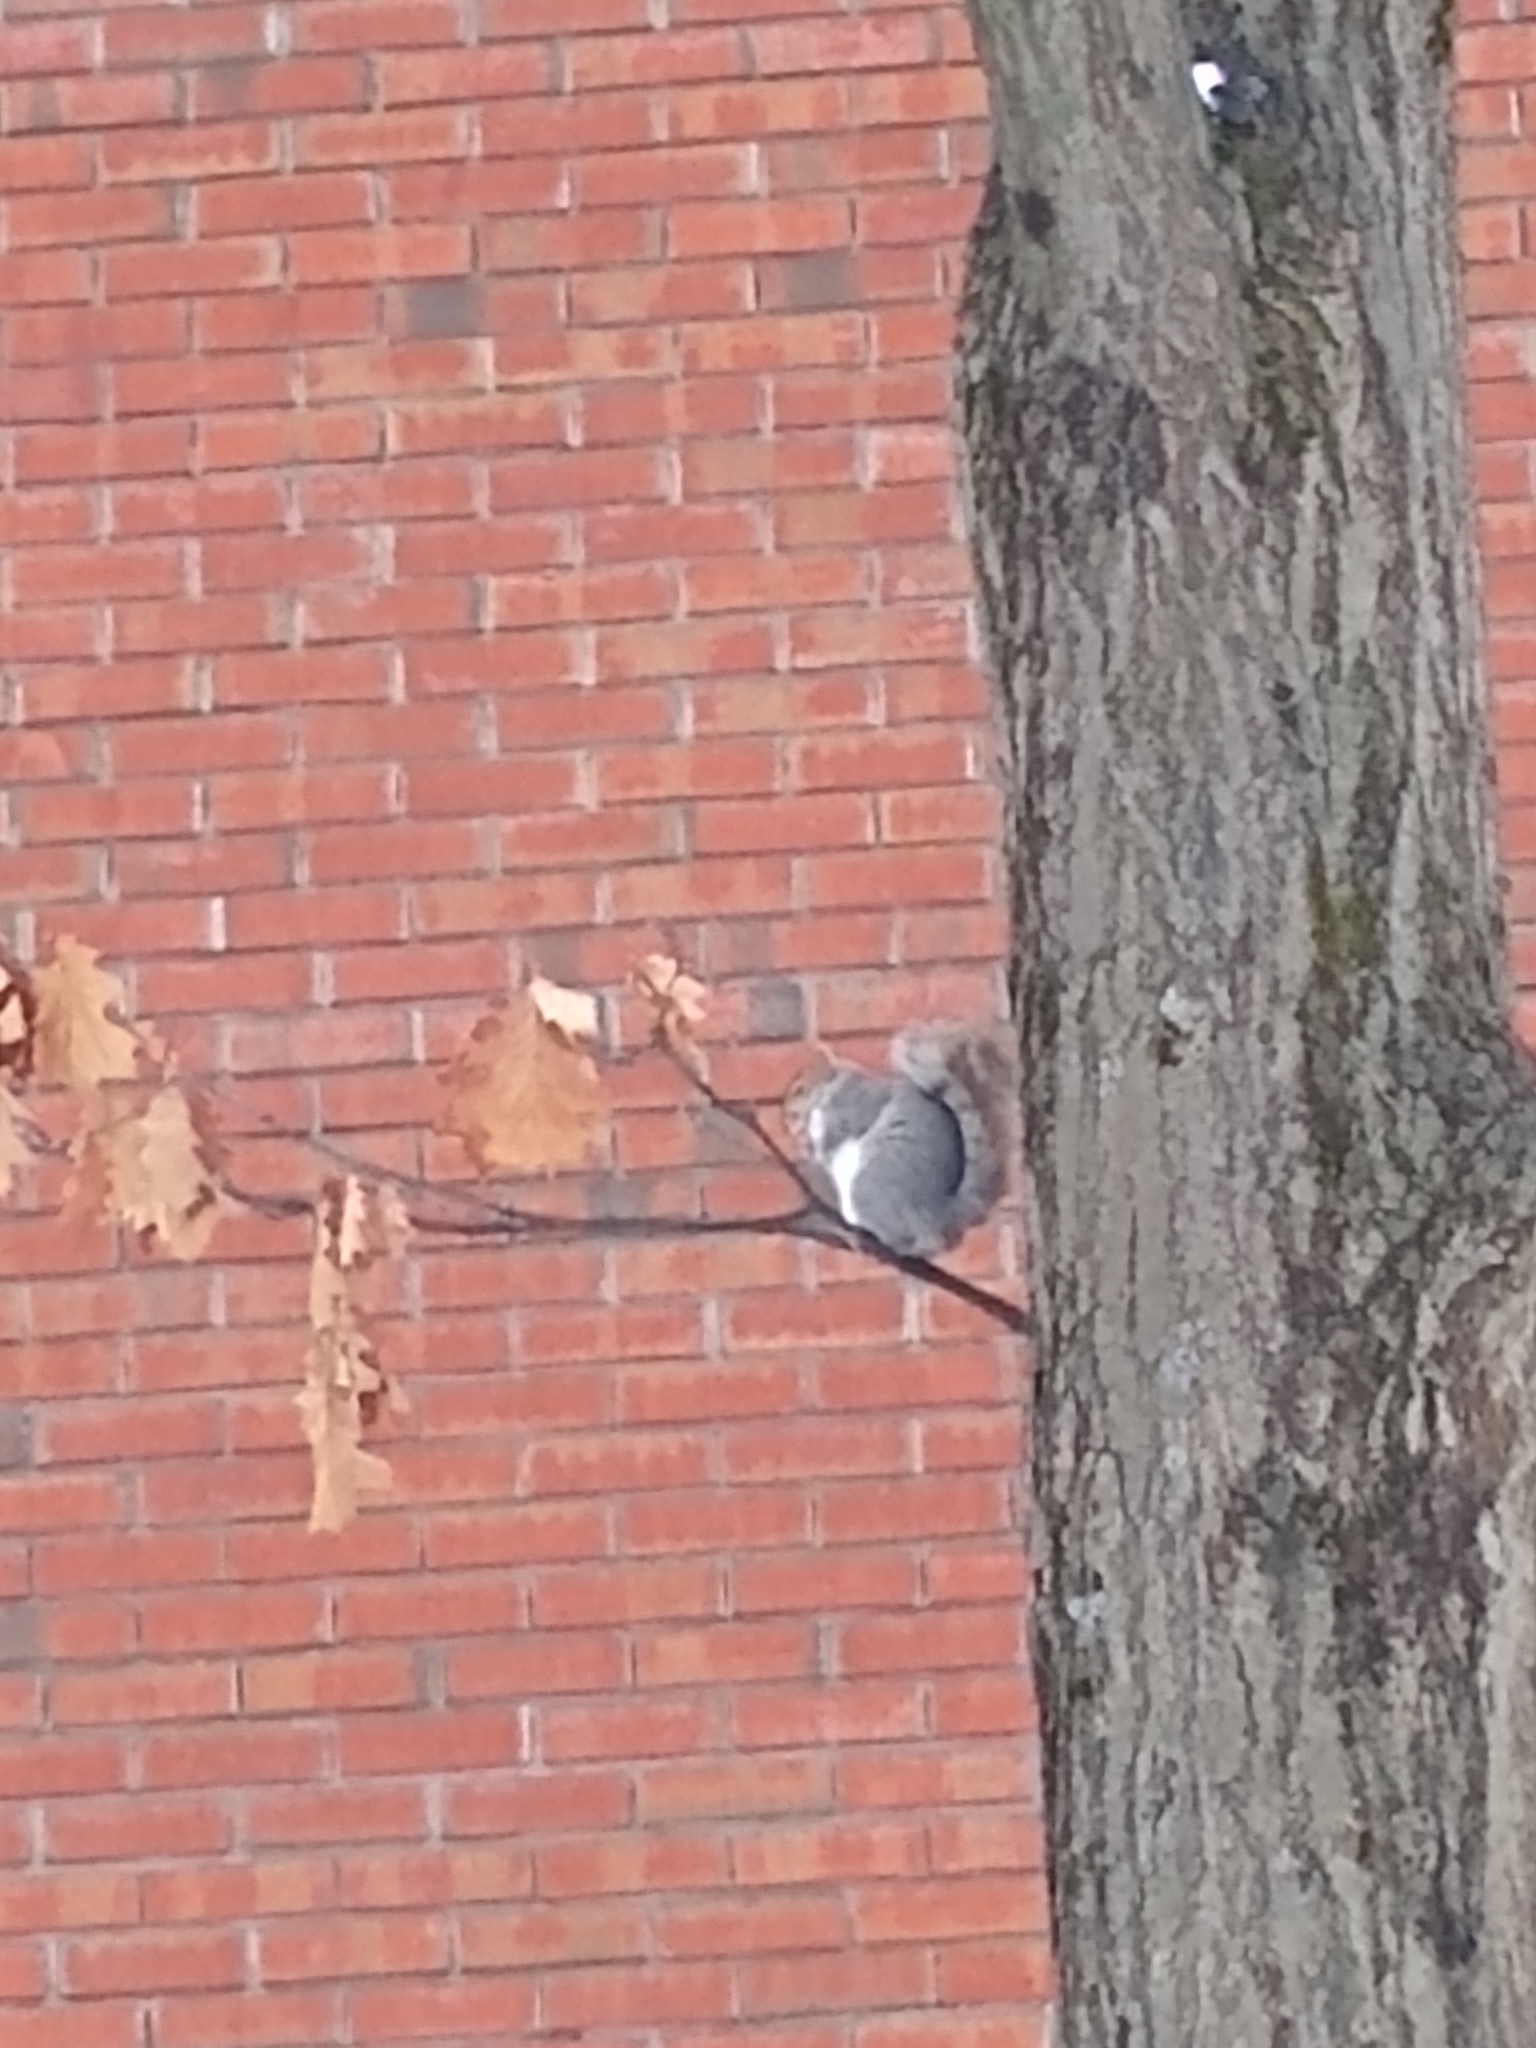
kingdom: Animalia
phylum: Chordata
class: Mammalia
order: Rodentia
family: Sciuridae
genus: Sciurus
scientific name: Sciurus carolinensis
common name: Eastern gray squirrel
